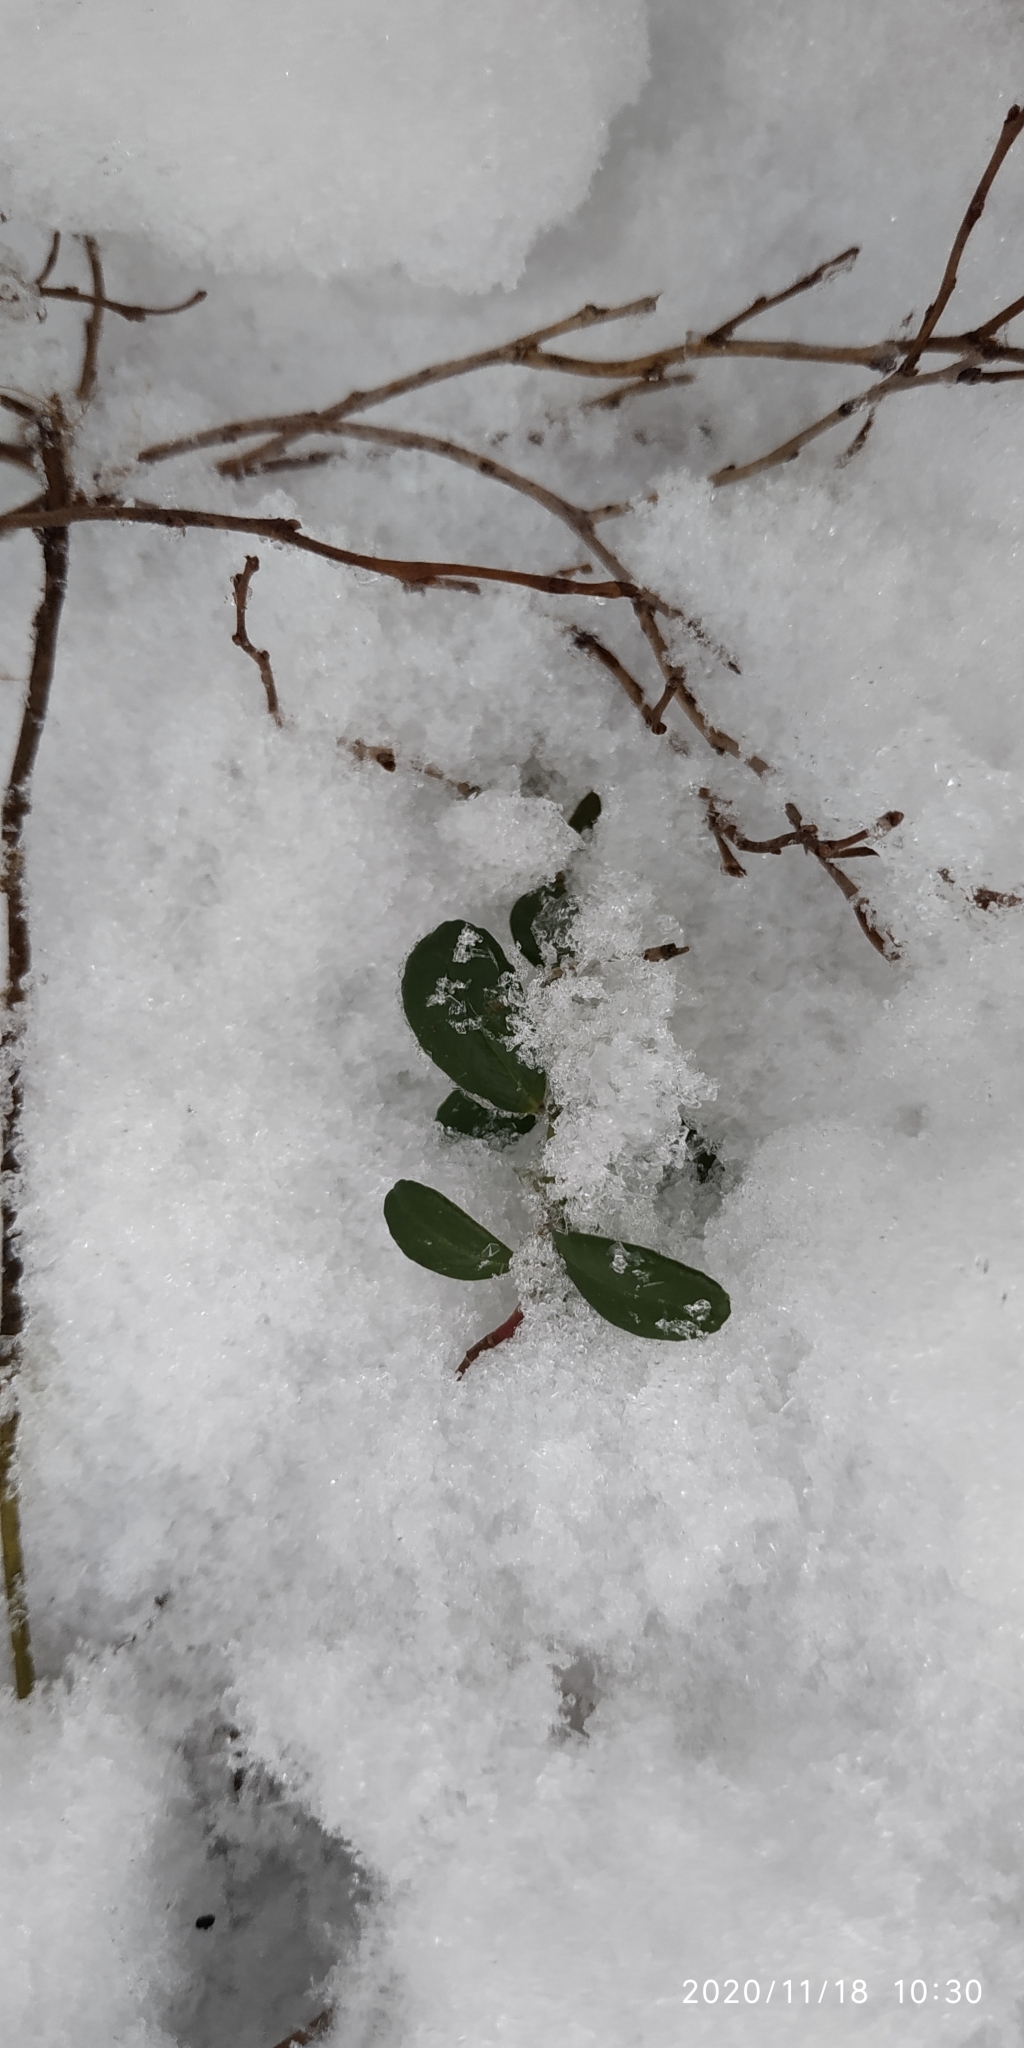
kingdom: Plantae
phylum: Tracheophyta
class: Magnoliopsida
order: Ericales
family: Ericaceae
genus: Vaccinium
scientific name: Vaccinium vitis-idaea
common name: Cowberry
